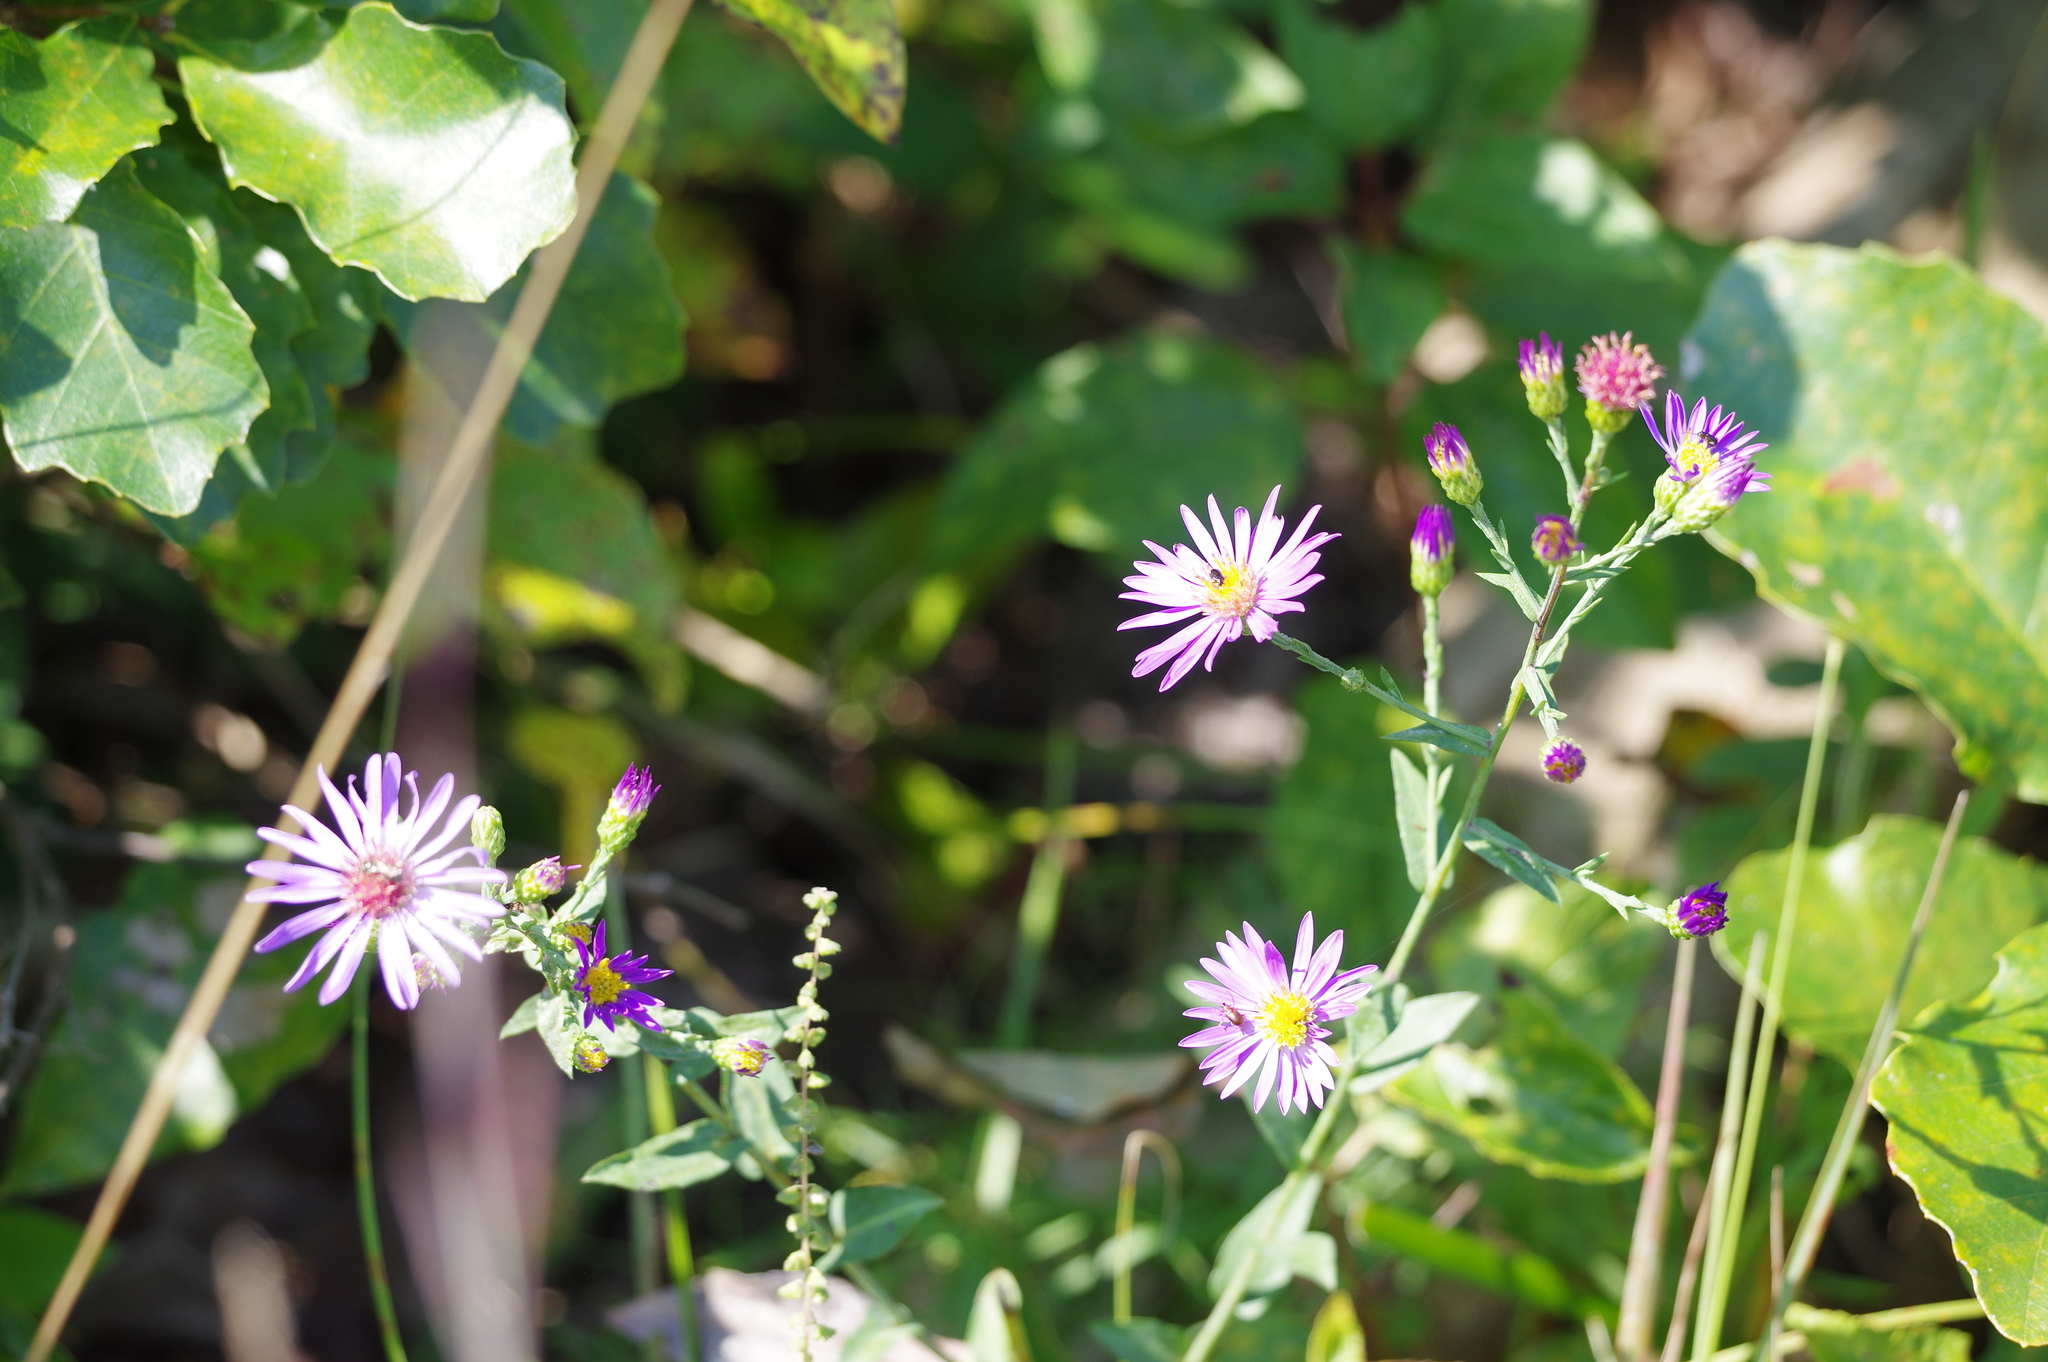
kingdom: Plantae
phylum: Tracheophyta
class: Magnoliopsida
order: Asterales
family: Asteraceae
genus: Symphyotrichum
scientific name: Symphyotrichum laeve
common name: Glaucous aster
